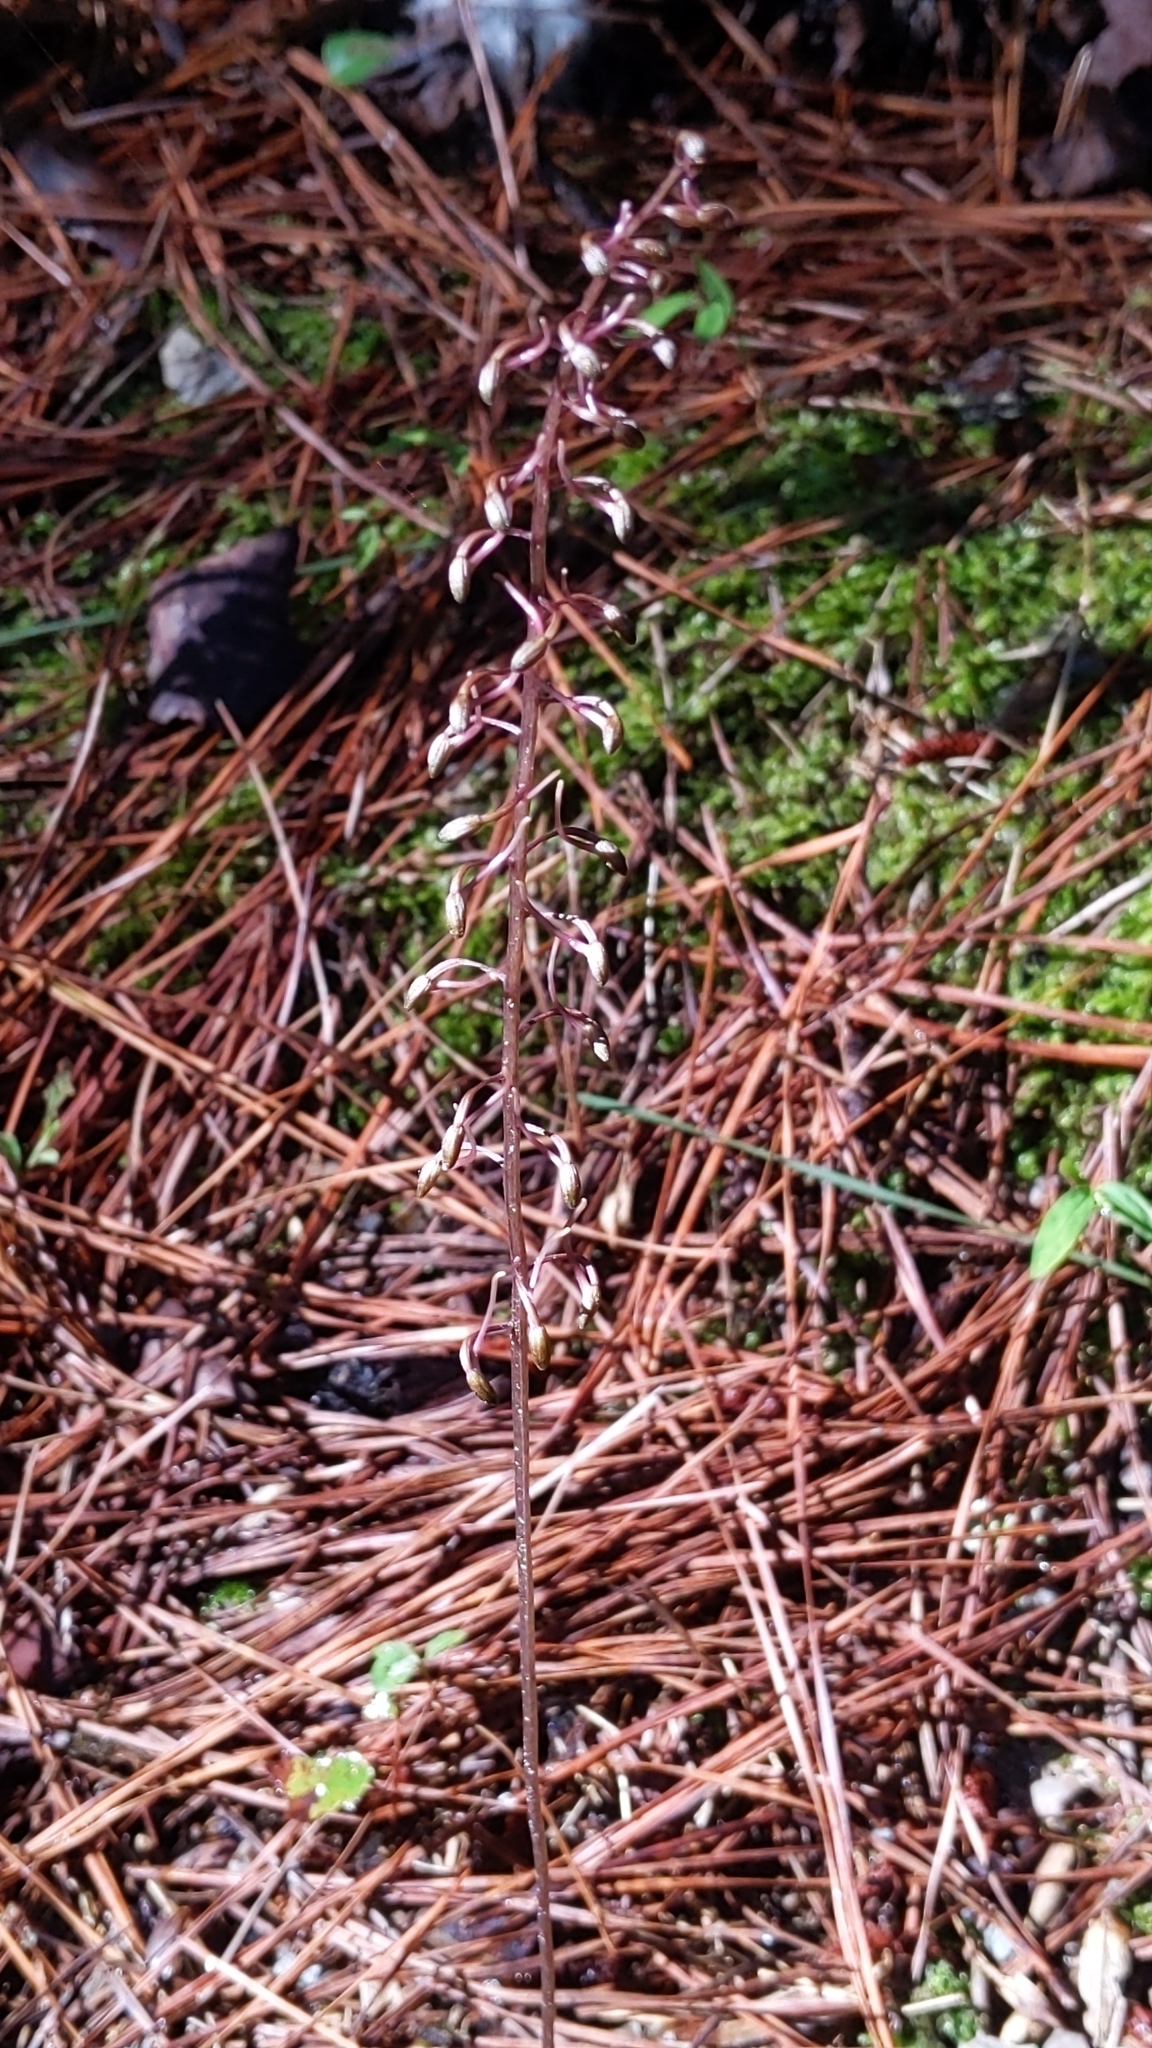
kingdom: Plantae
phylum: Tracheophyta
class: Liliopsida
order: Asparagales
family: Orchidaceae
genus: Tipularia
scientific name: Tipularia discolor
